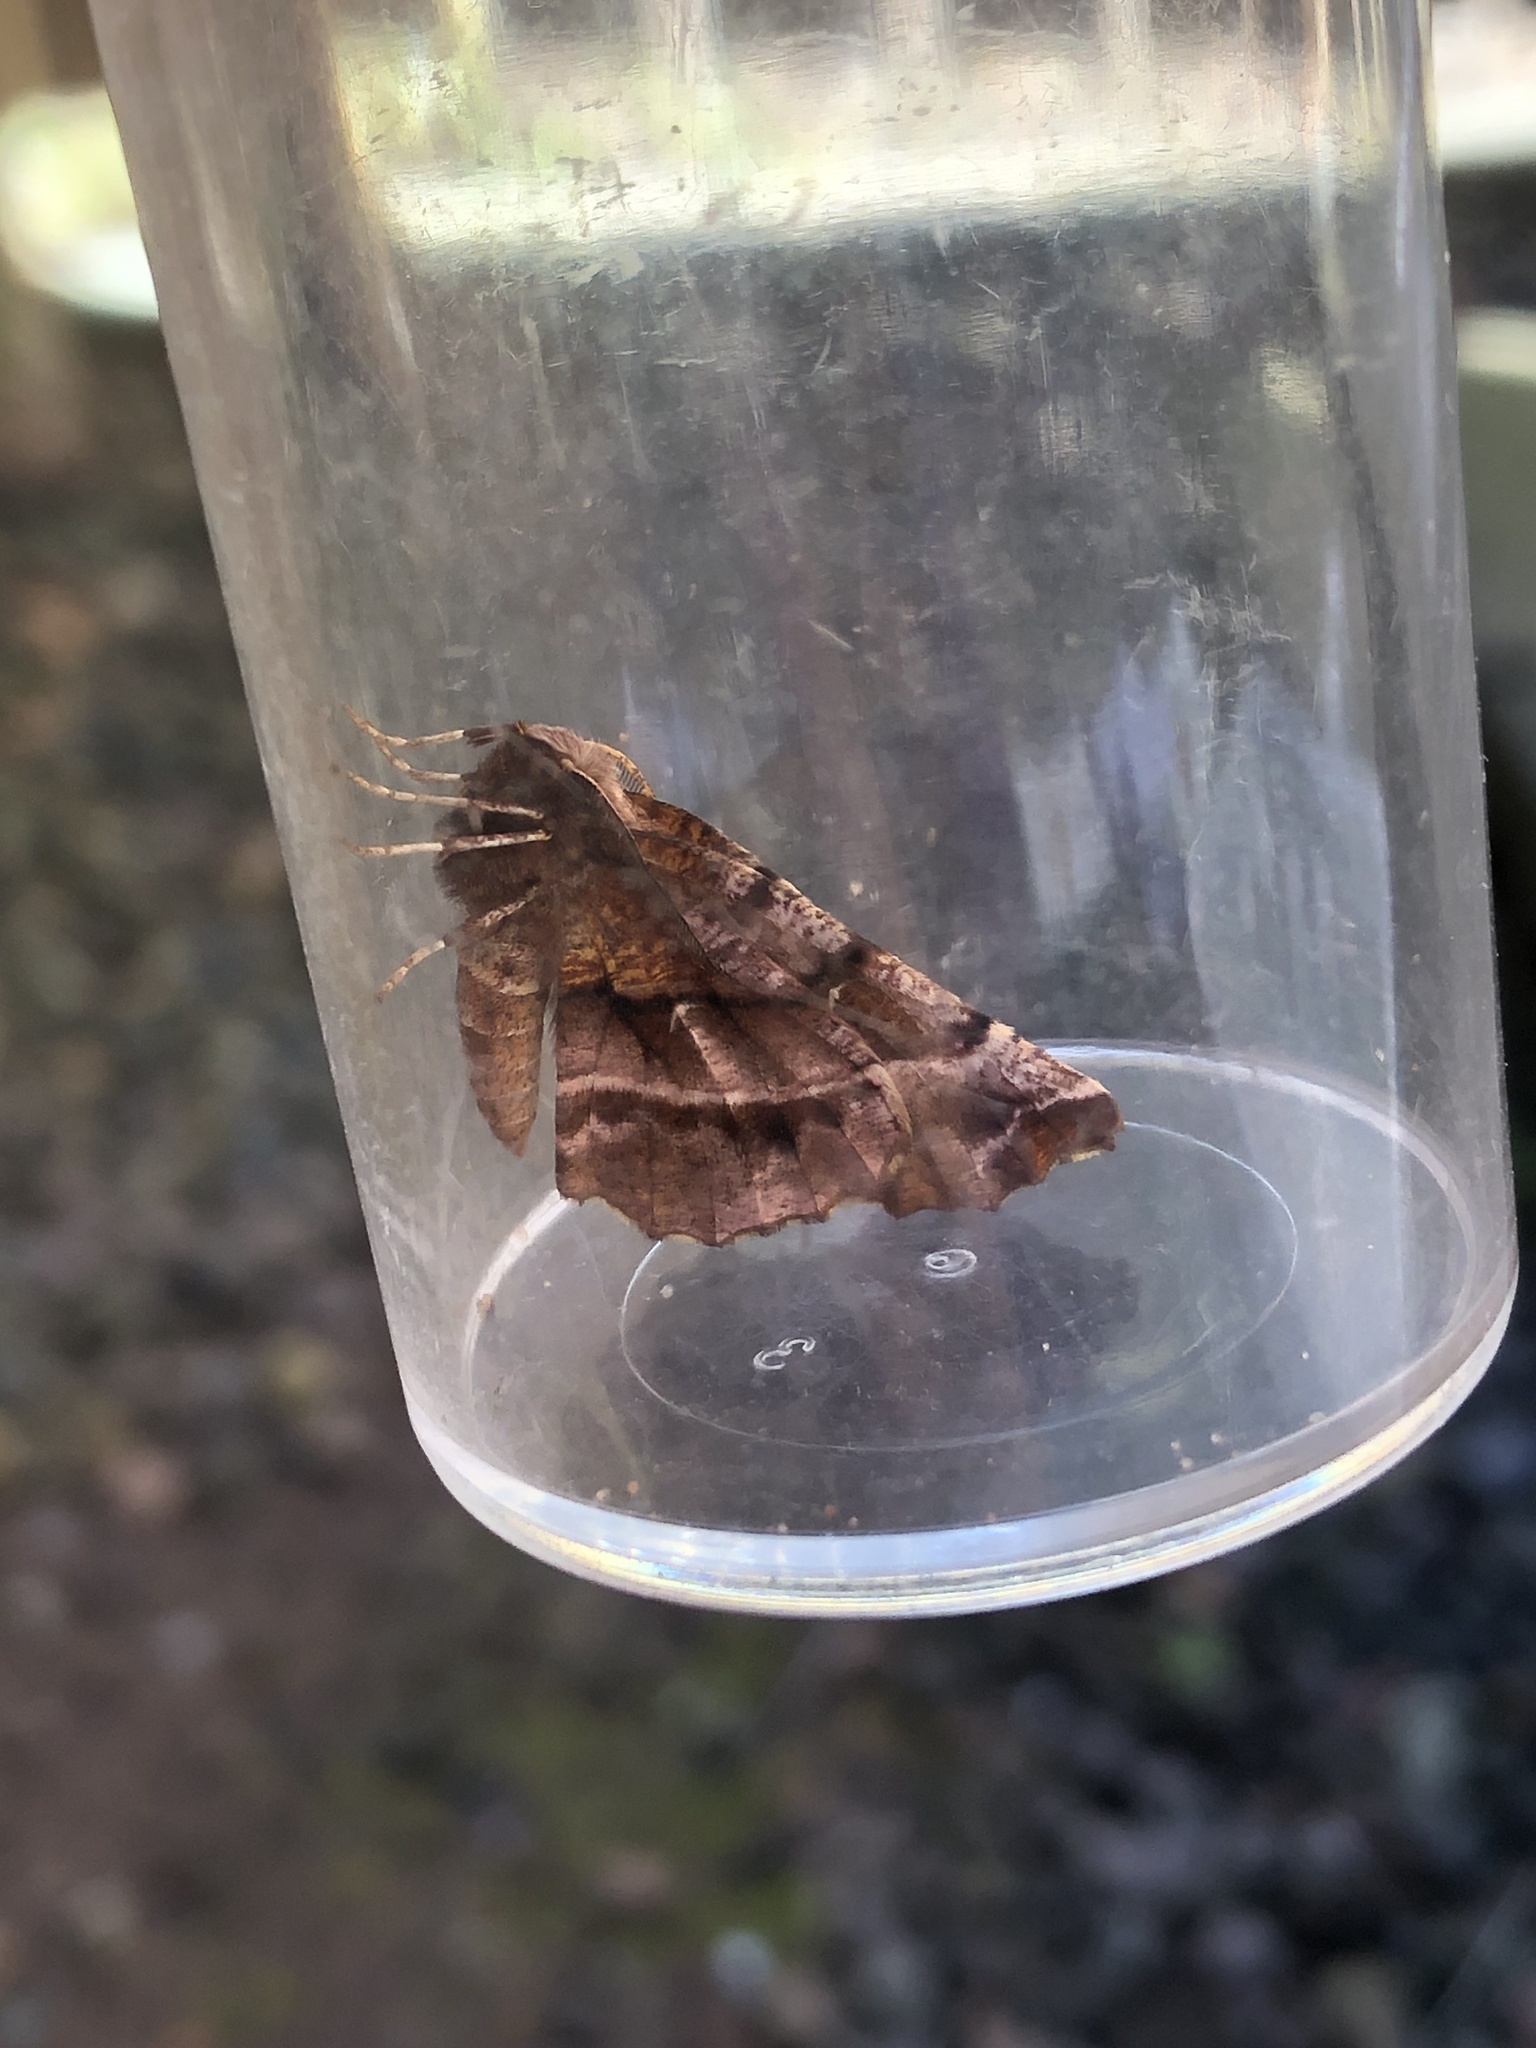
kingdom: Animalia
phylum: Arthropoda
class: Insecta
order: Lepidoptera
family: Geometridae
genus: Selenia
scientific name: Selenia dentaria
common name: Early thorn
